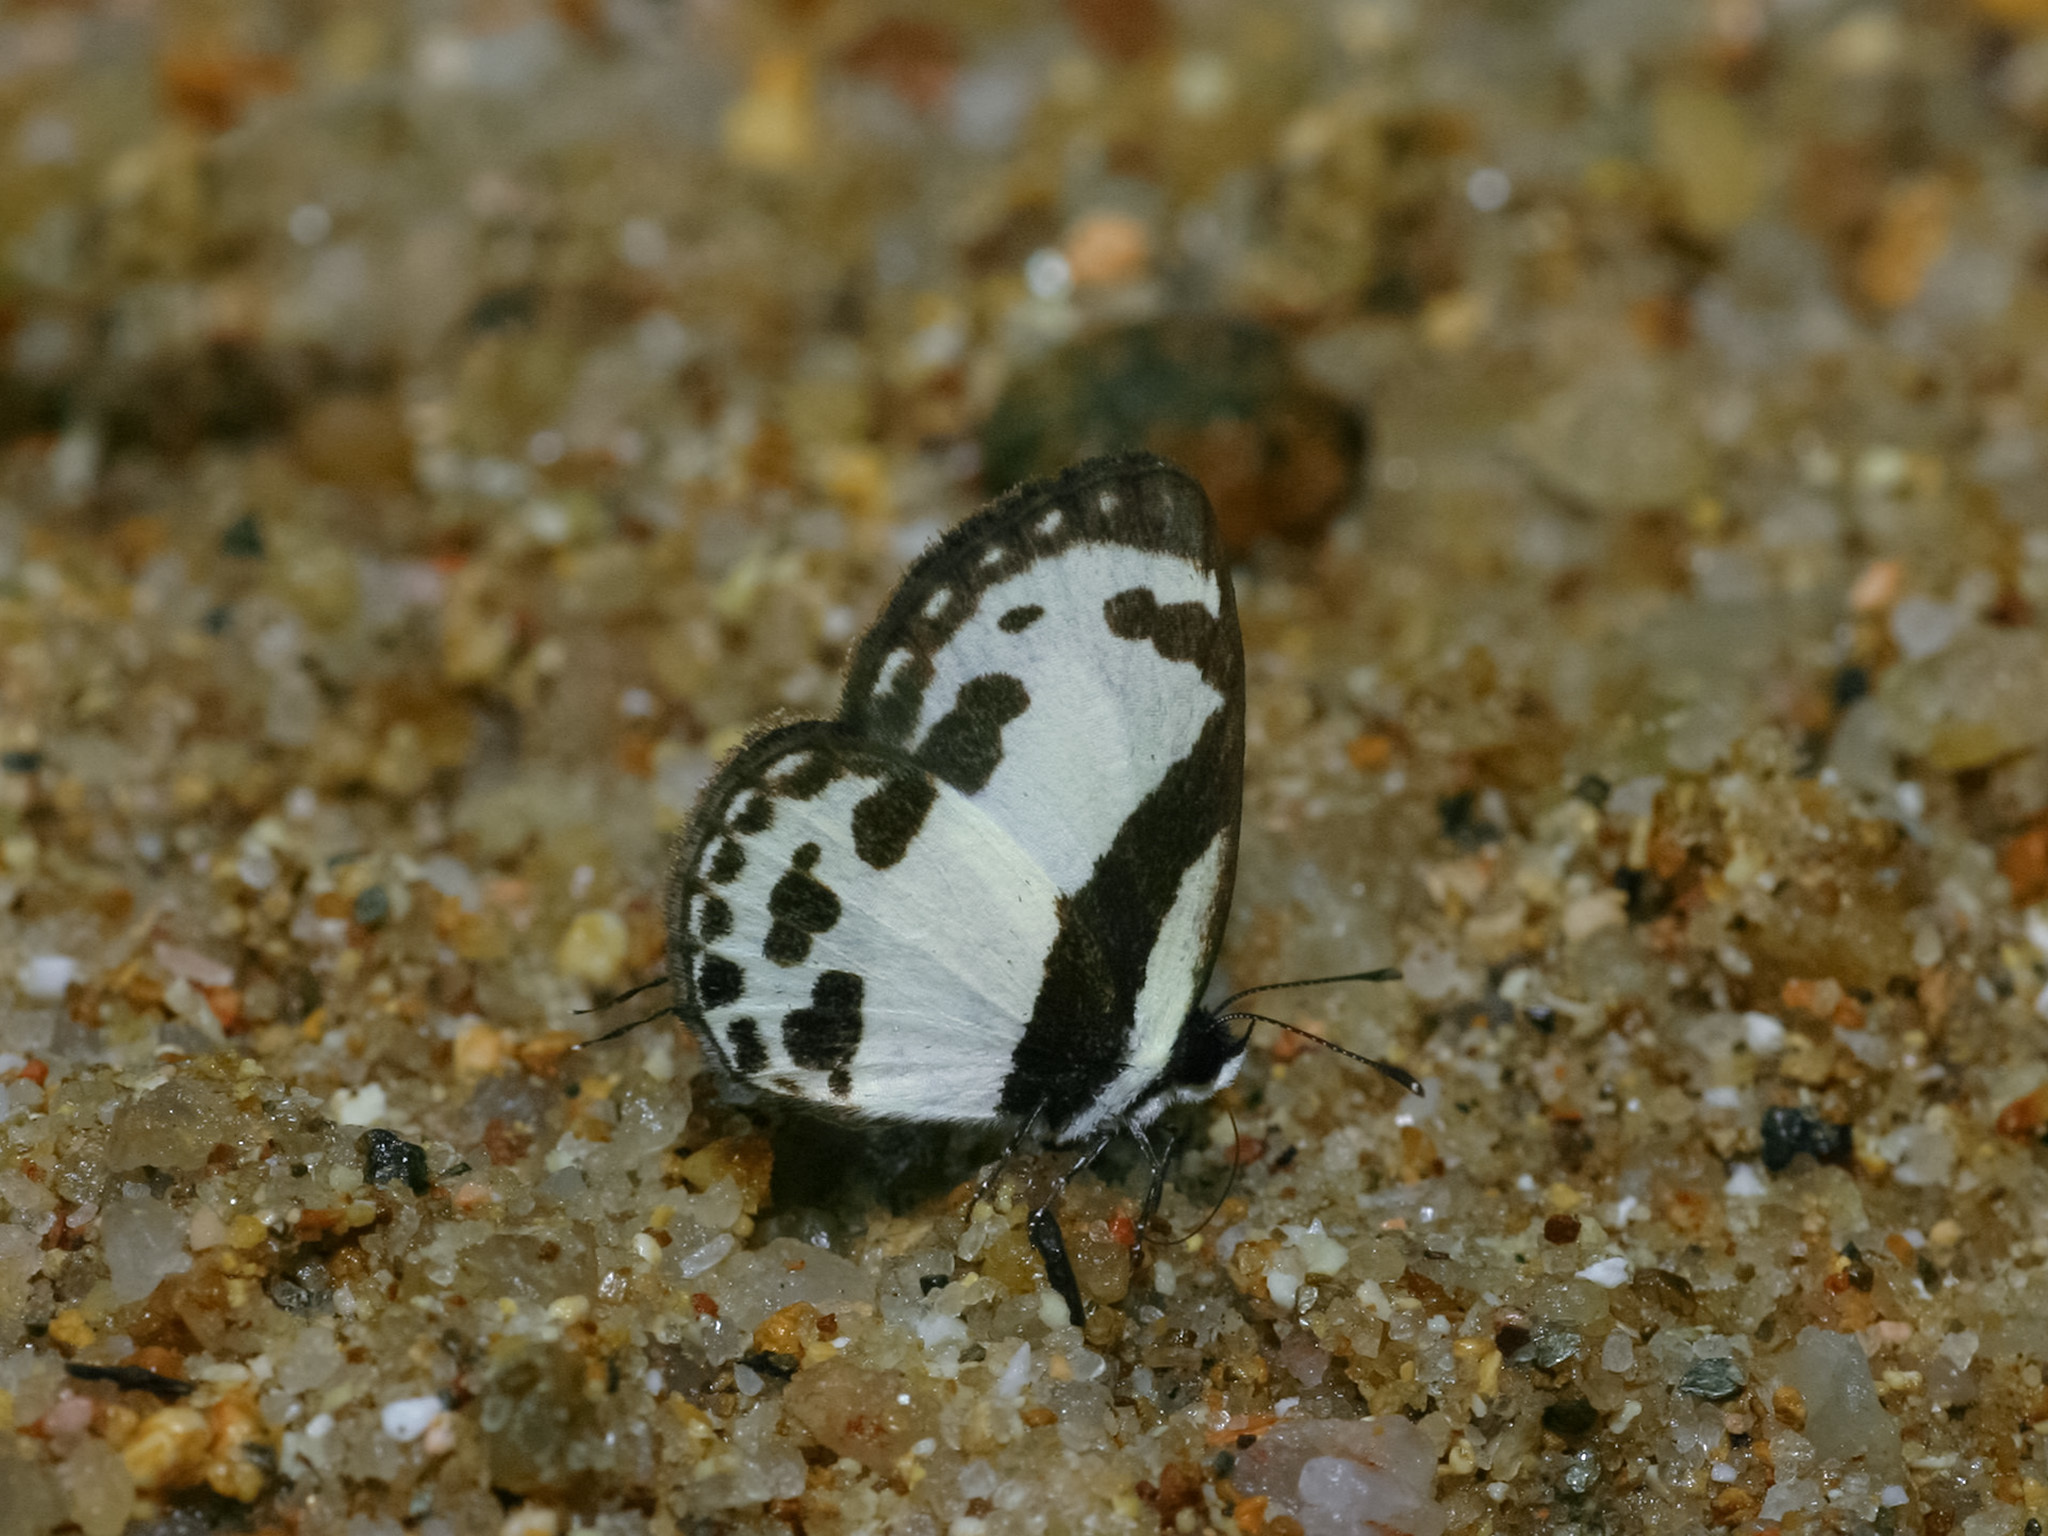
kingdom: Animalia
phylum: Arthropoda
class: Insecta
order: Lepidoptera
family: Lycaenidae
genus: Caleta
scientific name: Caleta roxus
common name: Straight pierrot
